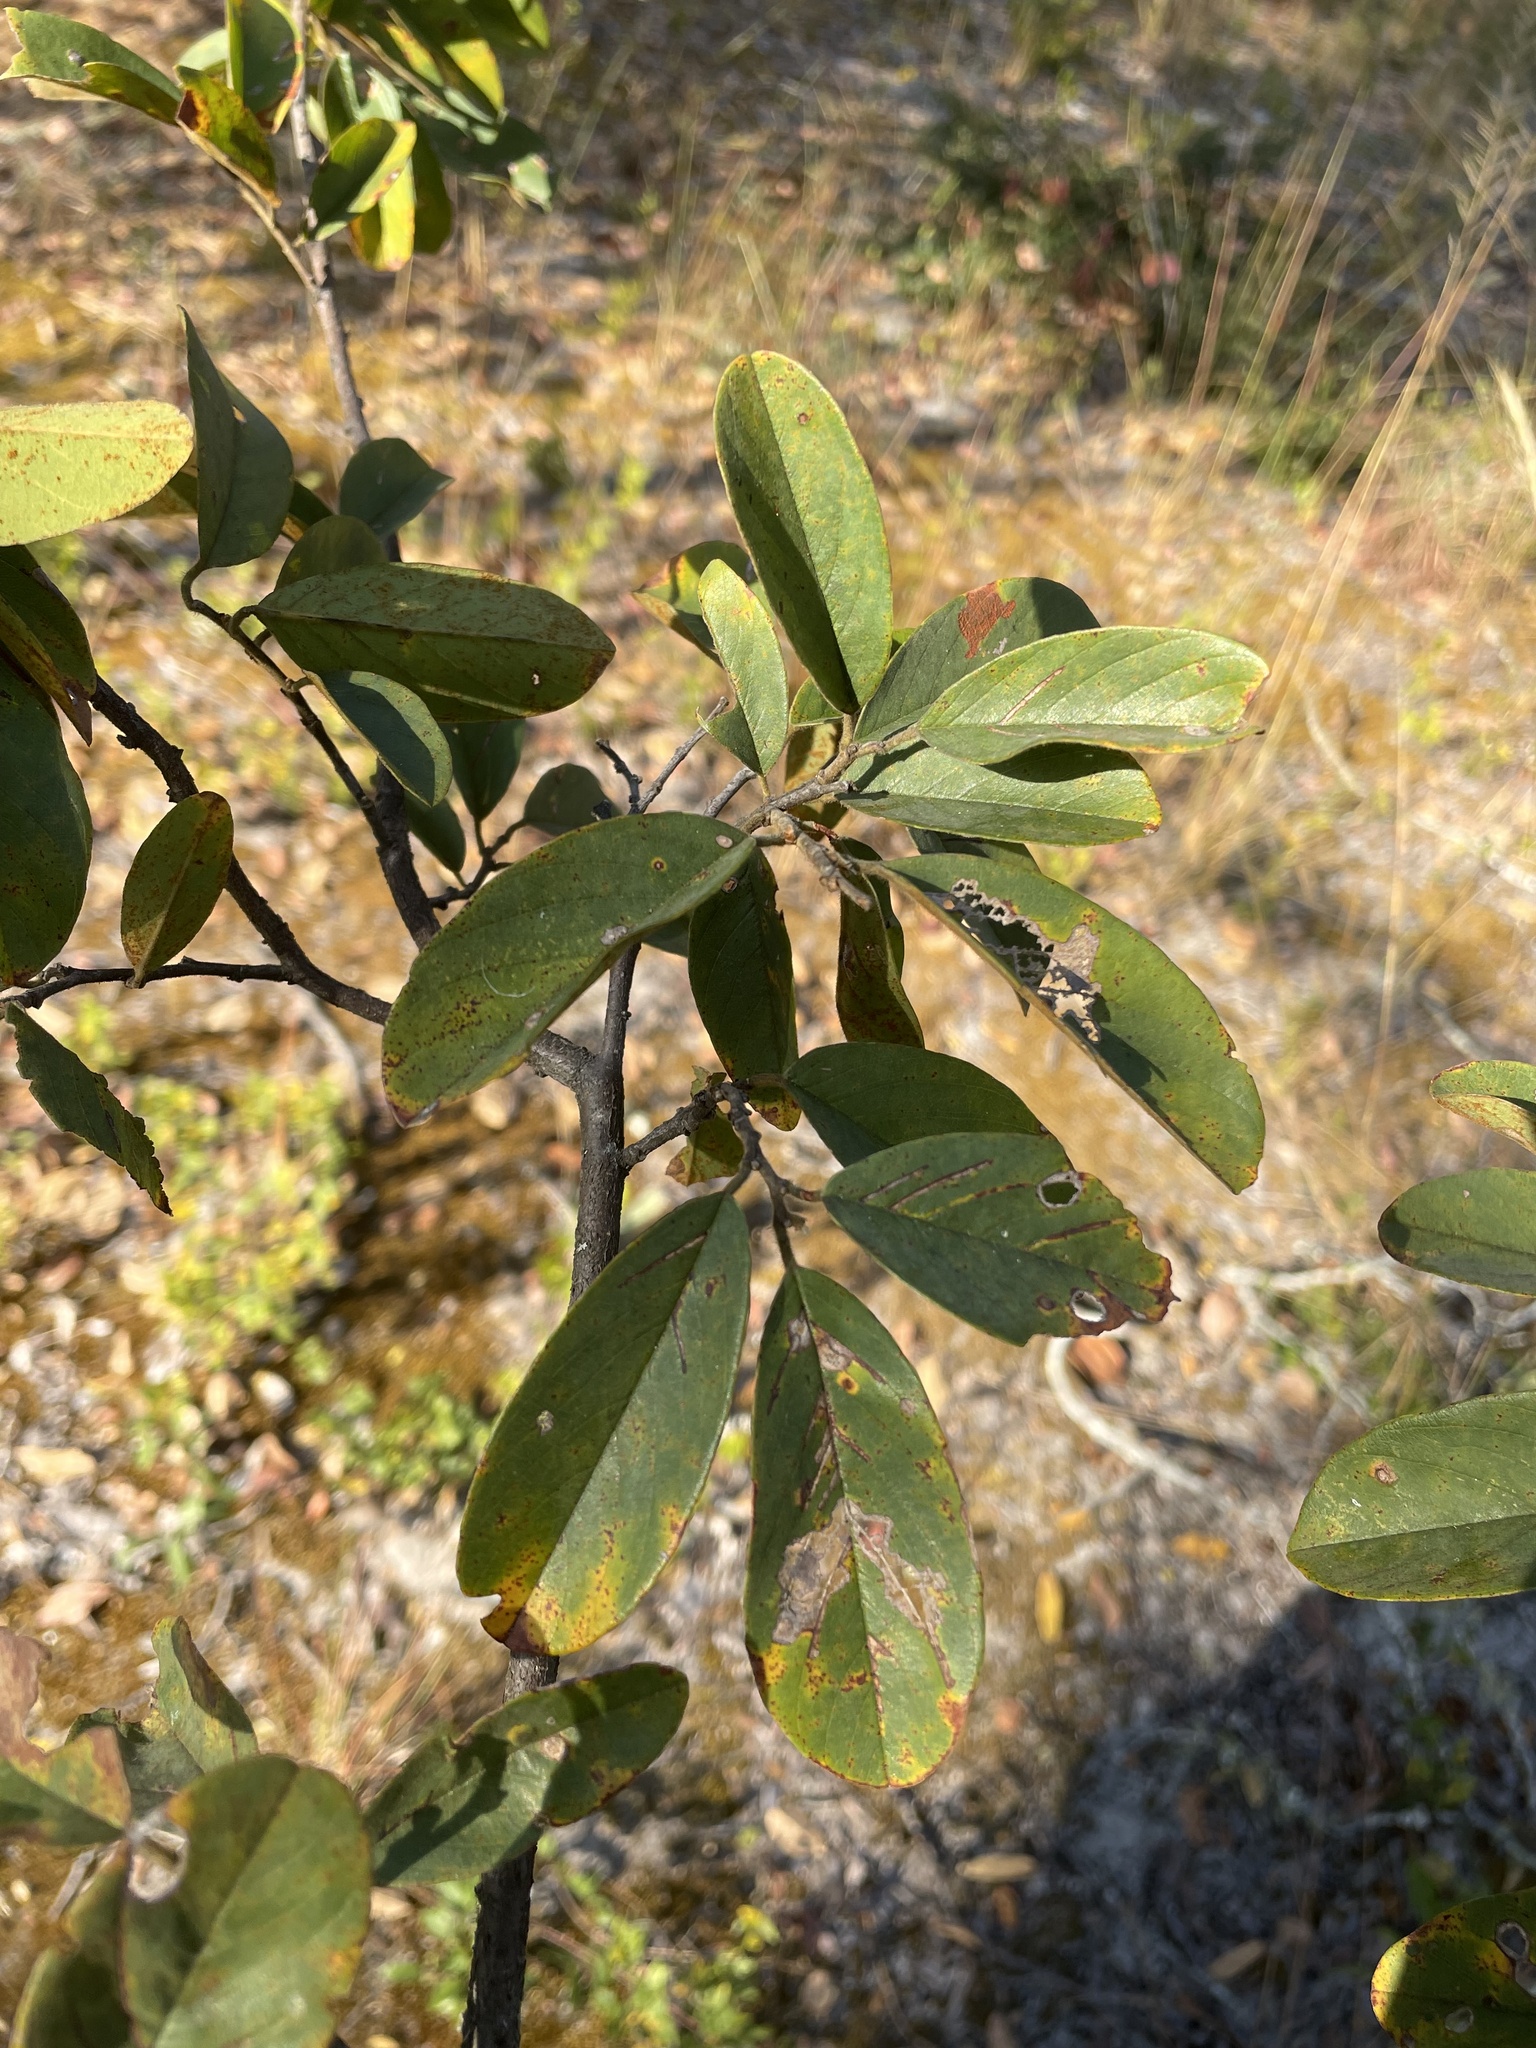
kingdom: Plantae
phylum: Tracheophyta
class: Magnoliopsida
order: Fabales
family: Fabaceae
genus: Baphia
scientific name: Baphia massaiensis
